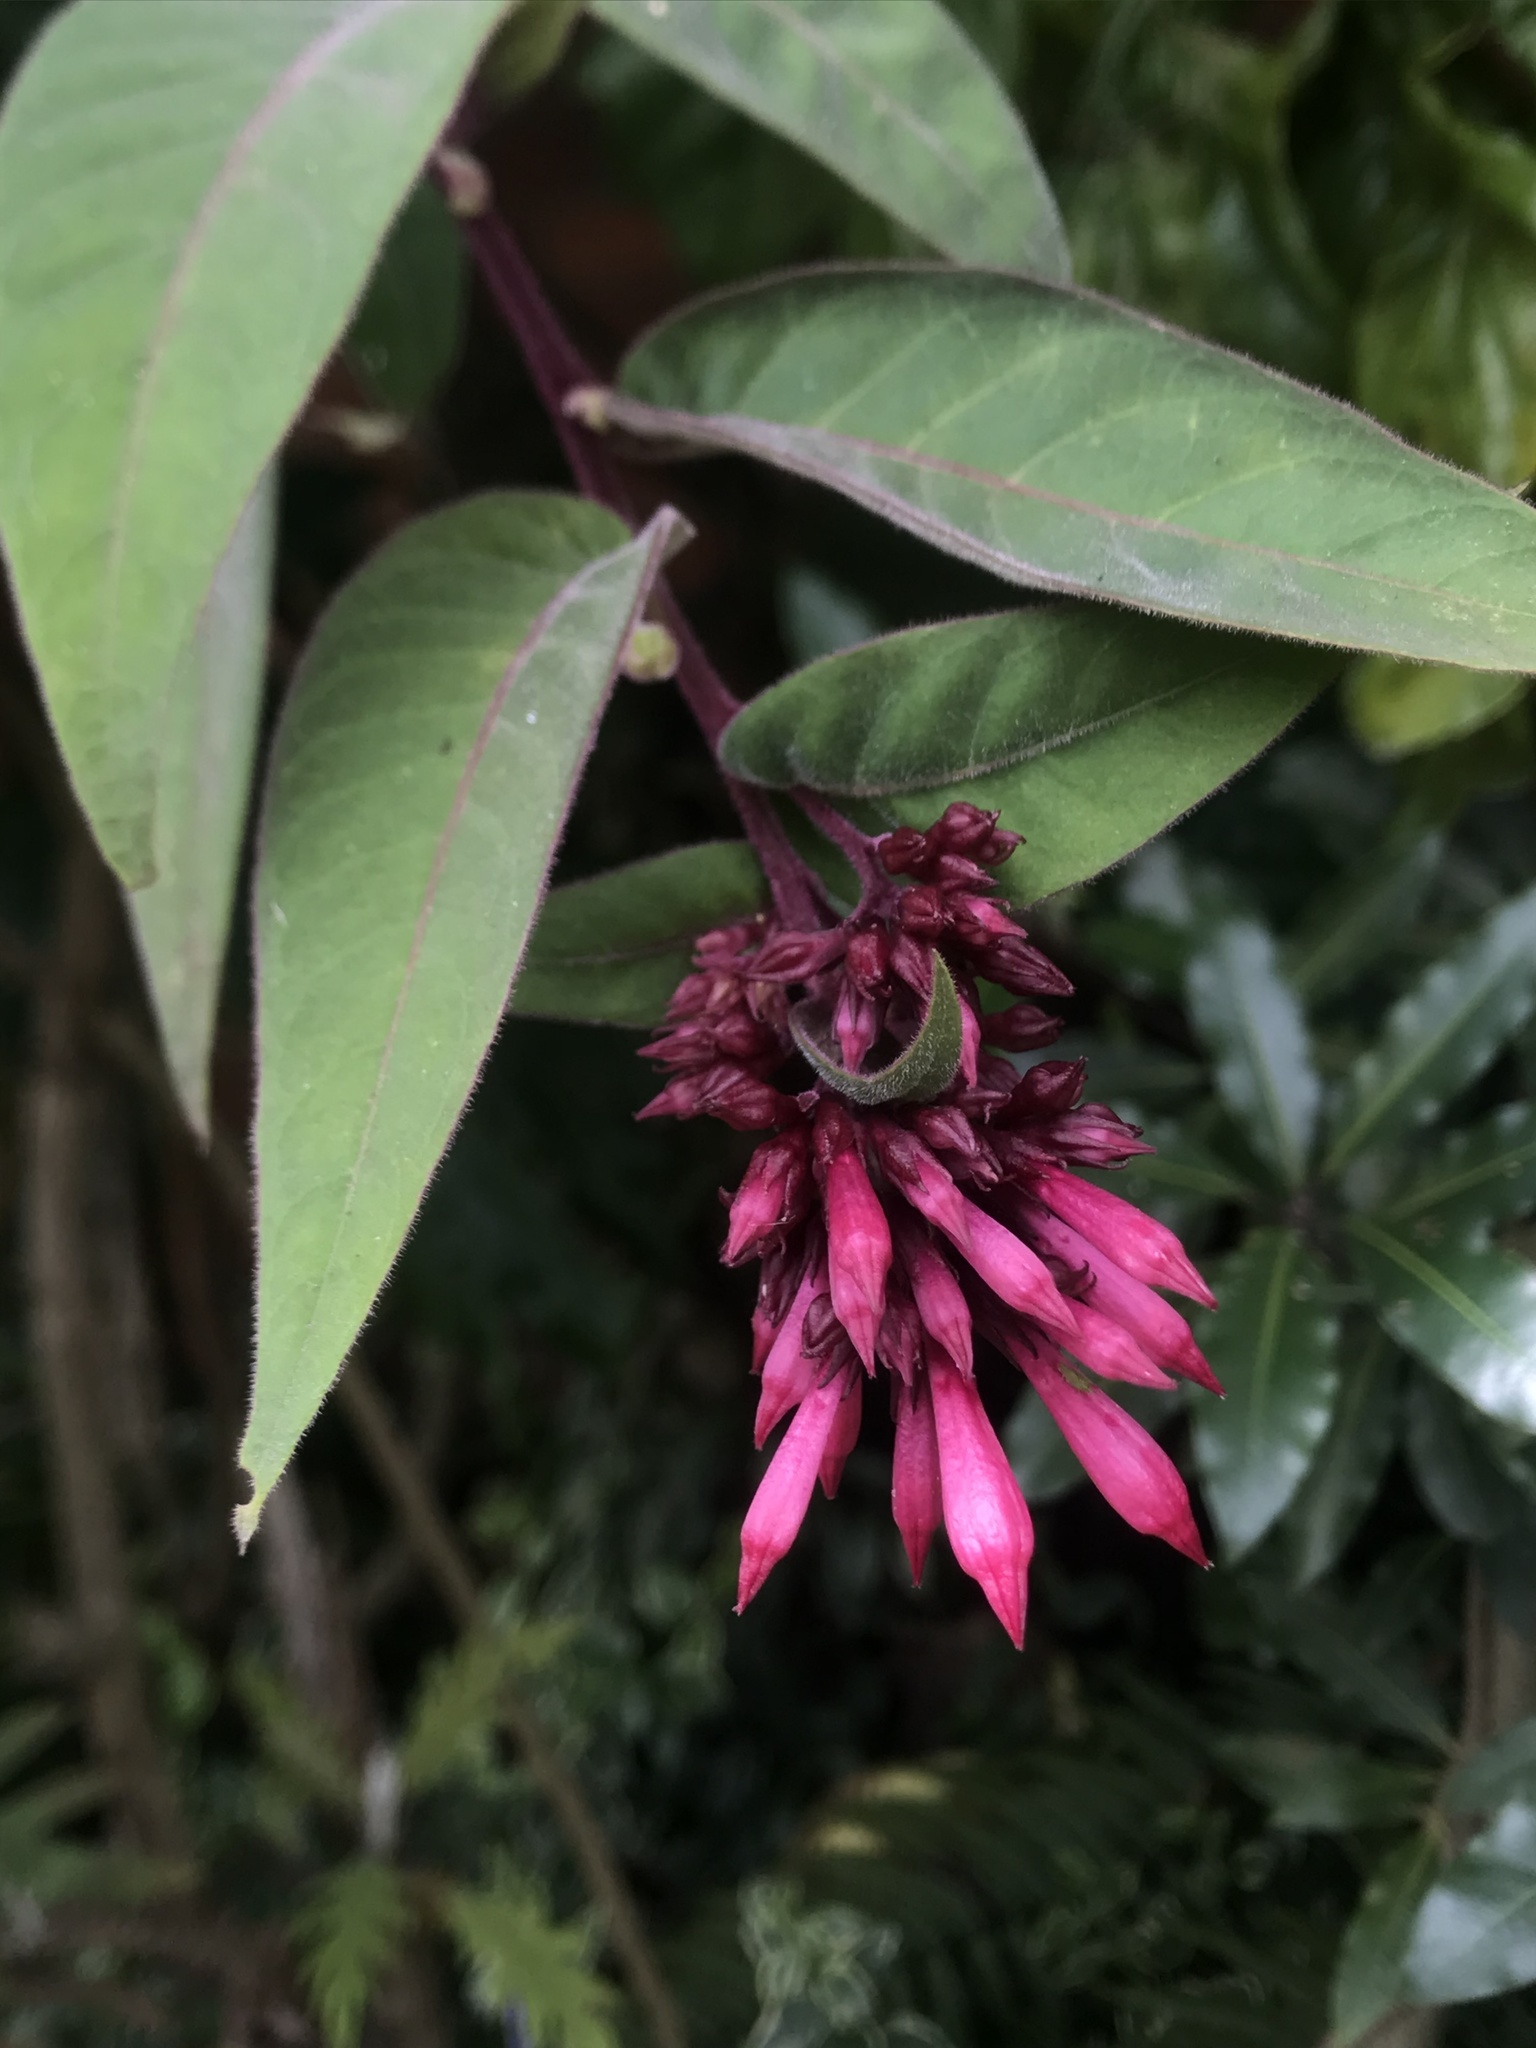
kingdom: Plantae
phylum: Tracheophyta
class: Magnoliopsida
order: Solanales
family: Solanaceae
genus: Cestrum
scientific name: Cestrum elegans
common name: Crimson cestrum
